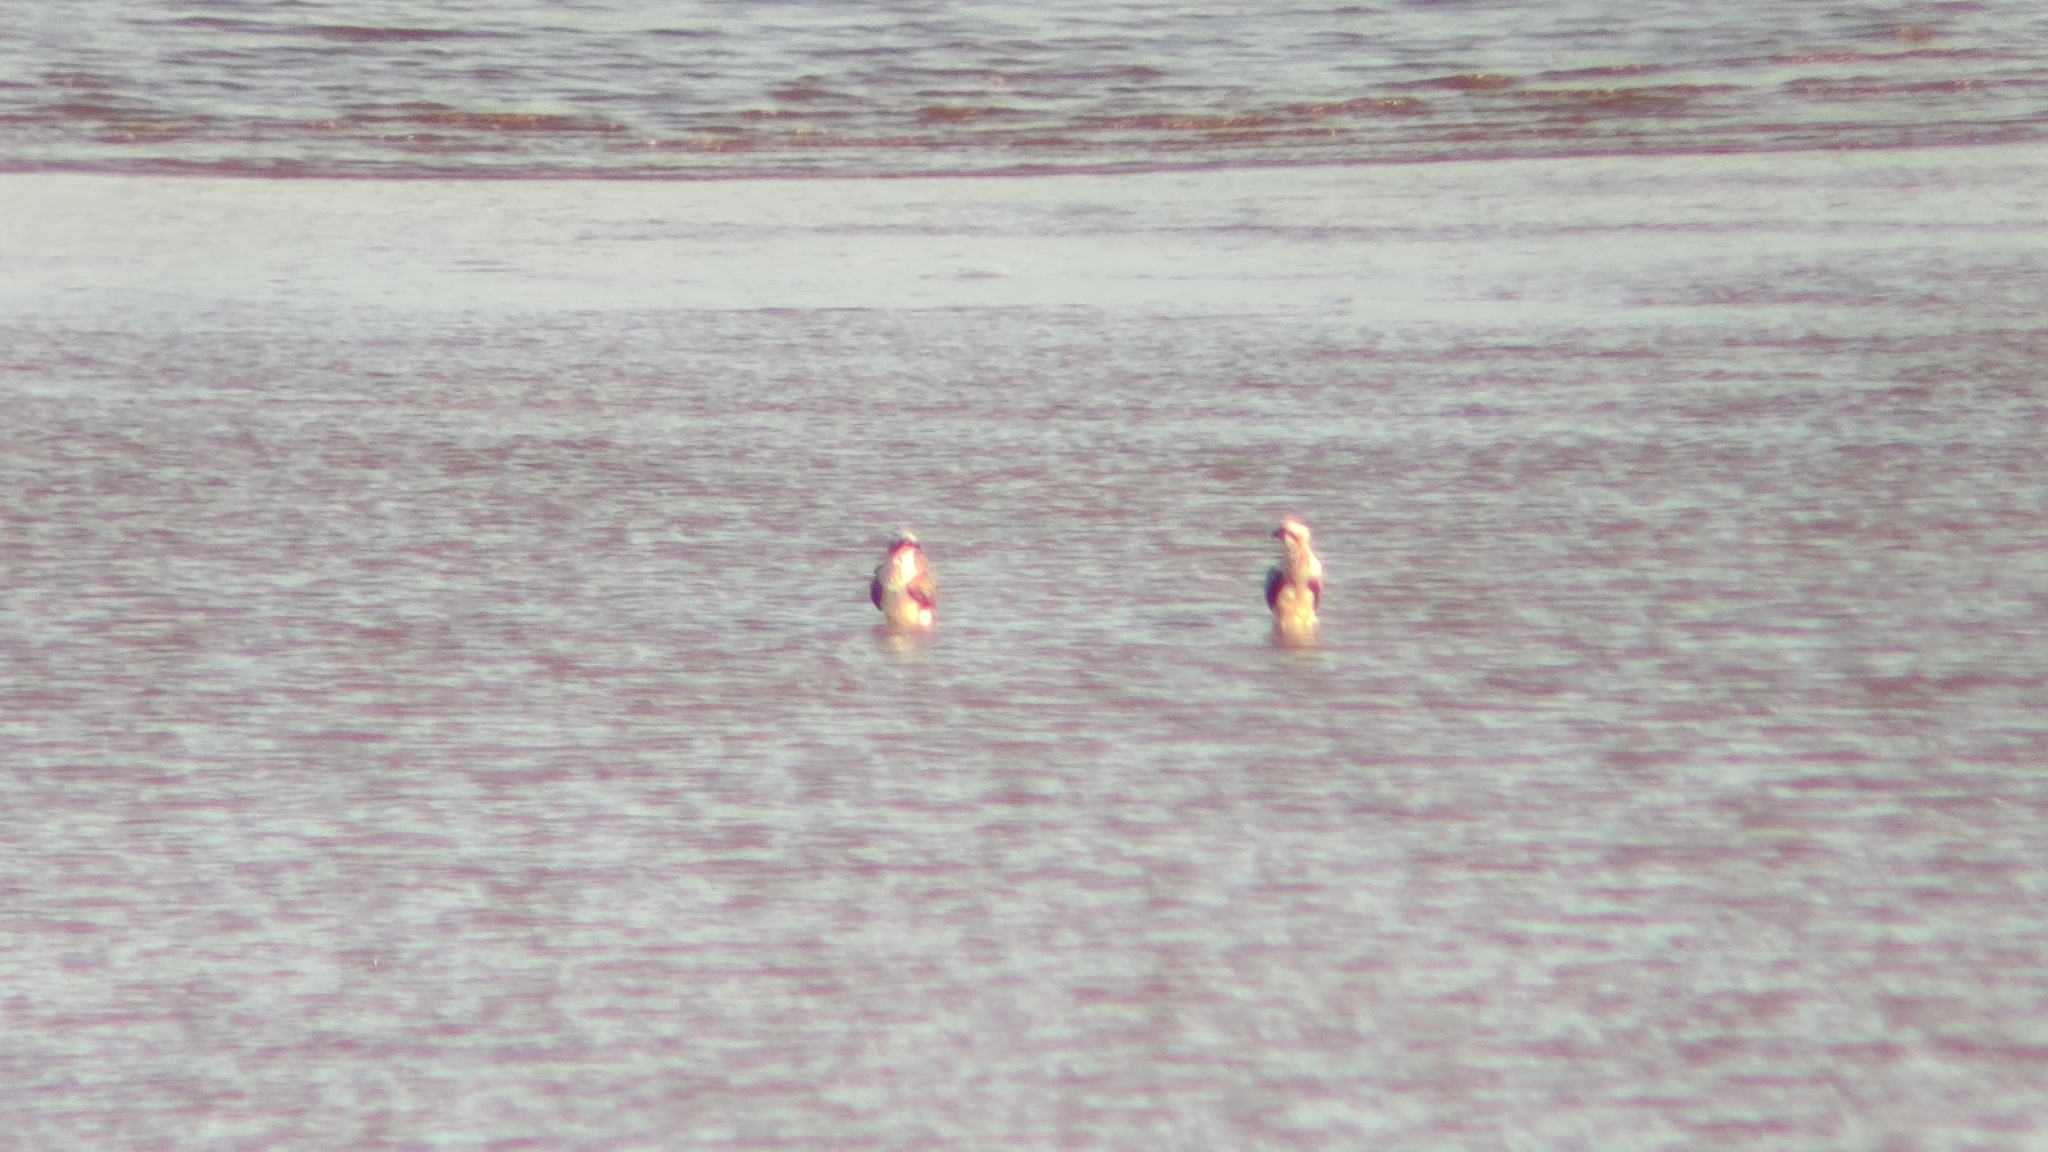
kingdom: Animalia
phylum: Chordata
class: Aves
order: Accipitriformes
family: Pandionidae
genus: Pandion
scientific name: Pandion cristatus
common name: Eastern osprey
